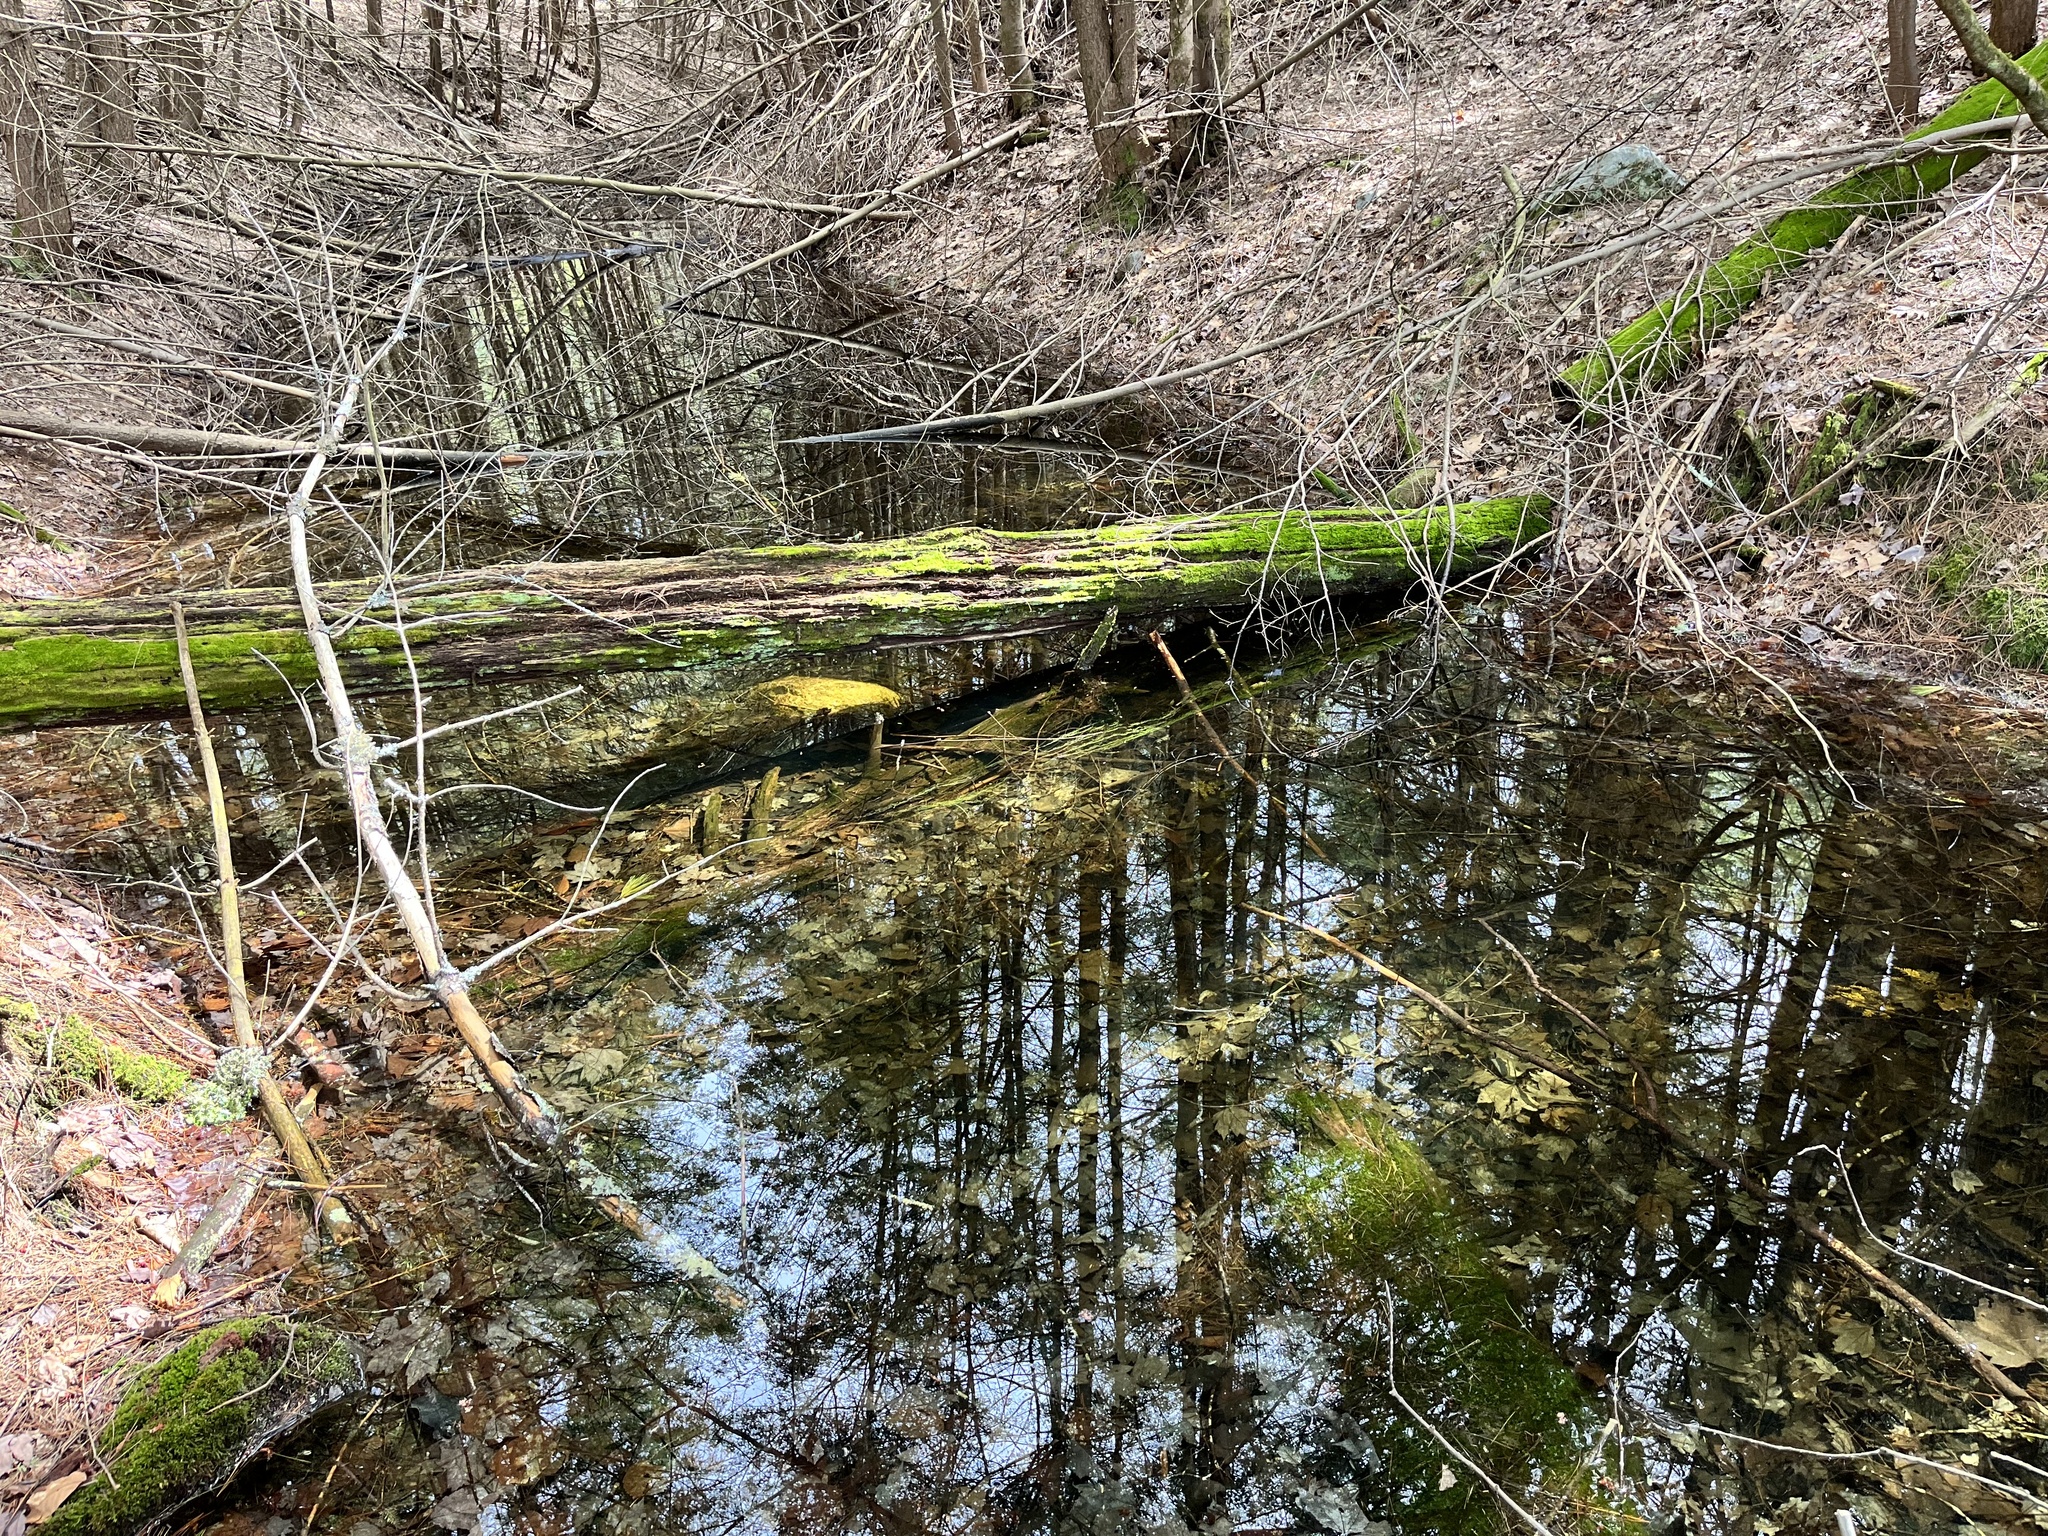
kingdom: Animalia
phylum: Chordata
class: Amphibia
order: Caudata
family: Ambystomatidae
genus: Ambystoma
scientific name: Ambystoma maculatum
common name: Spotted salamander
